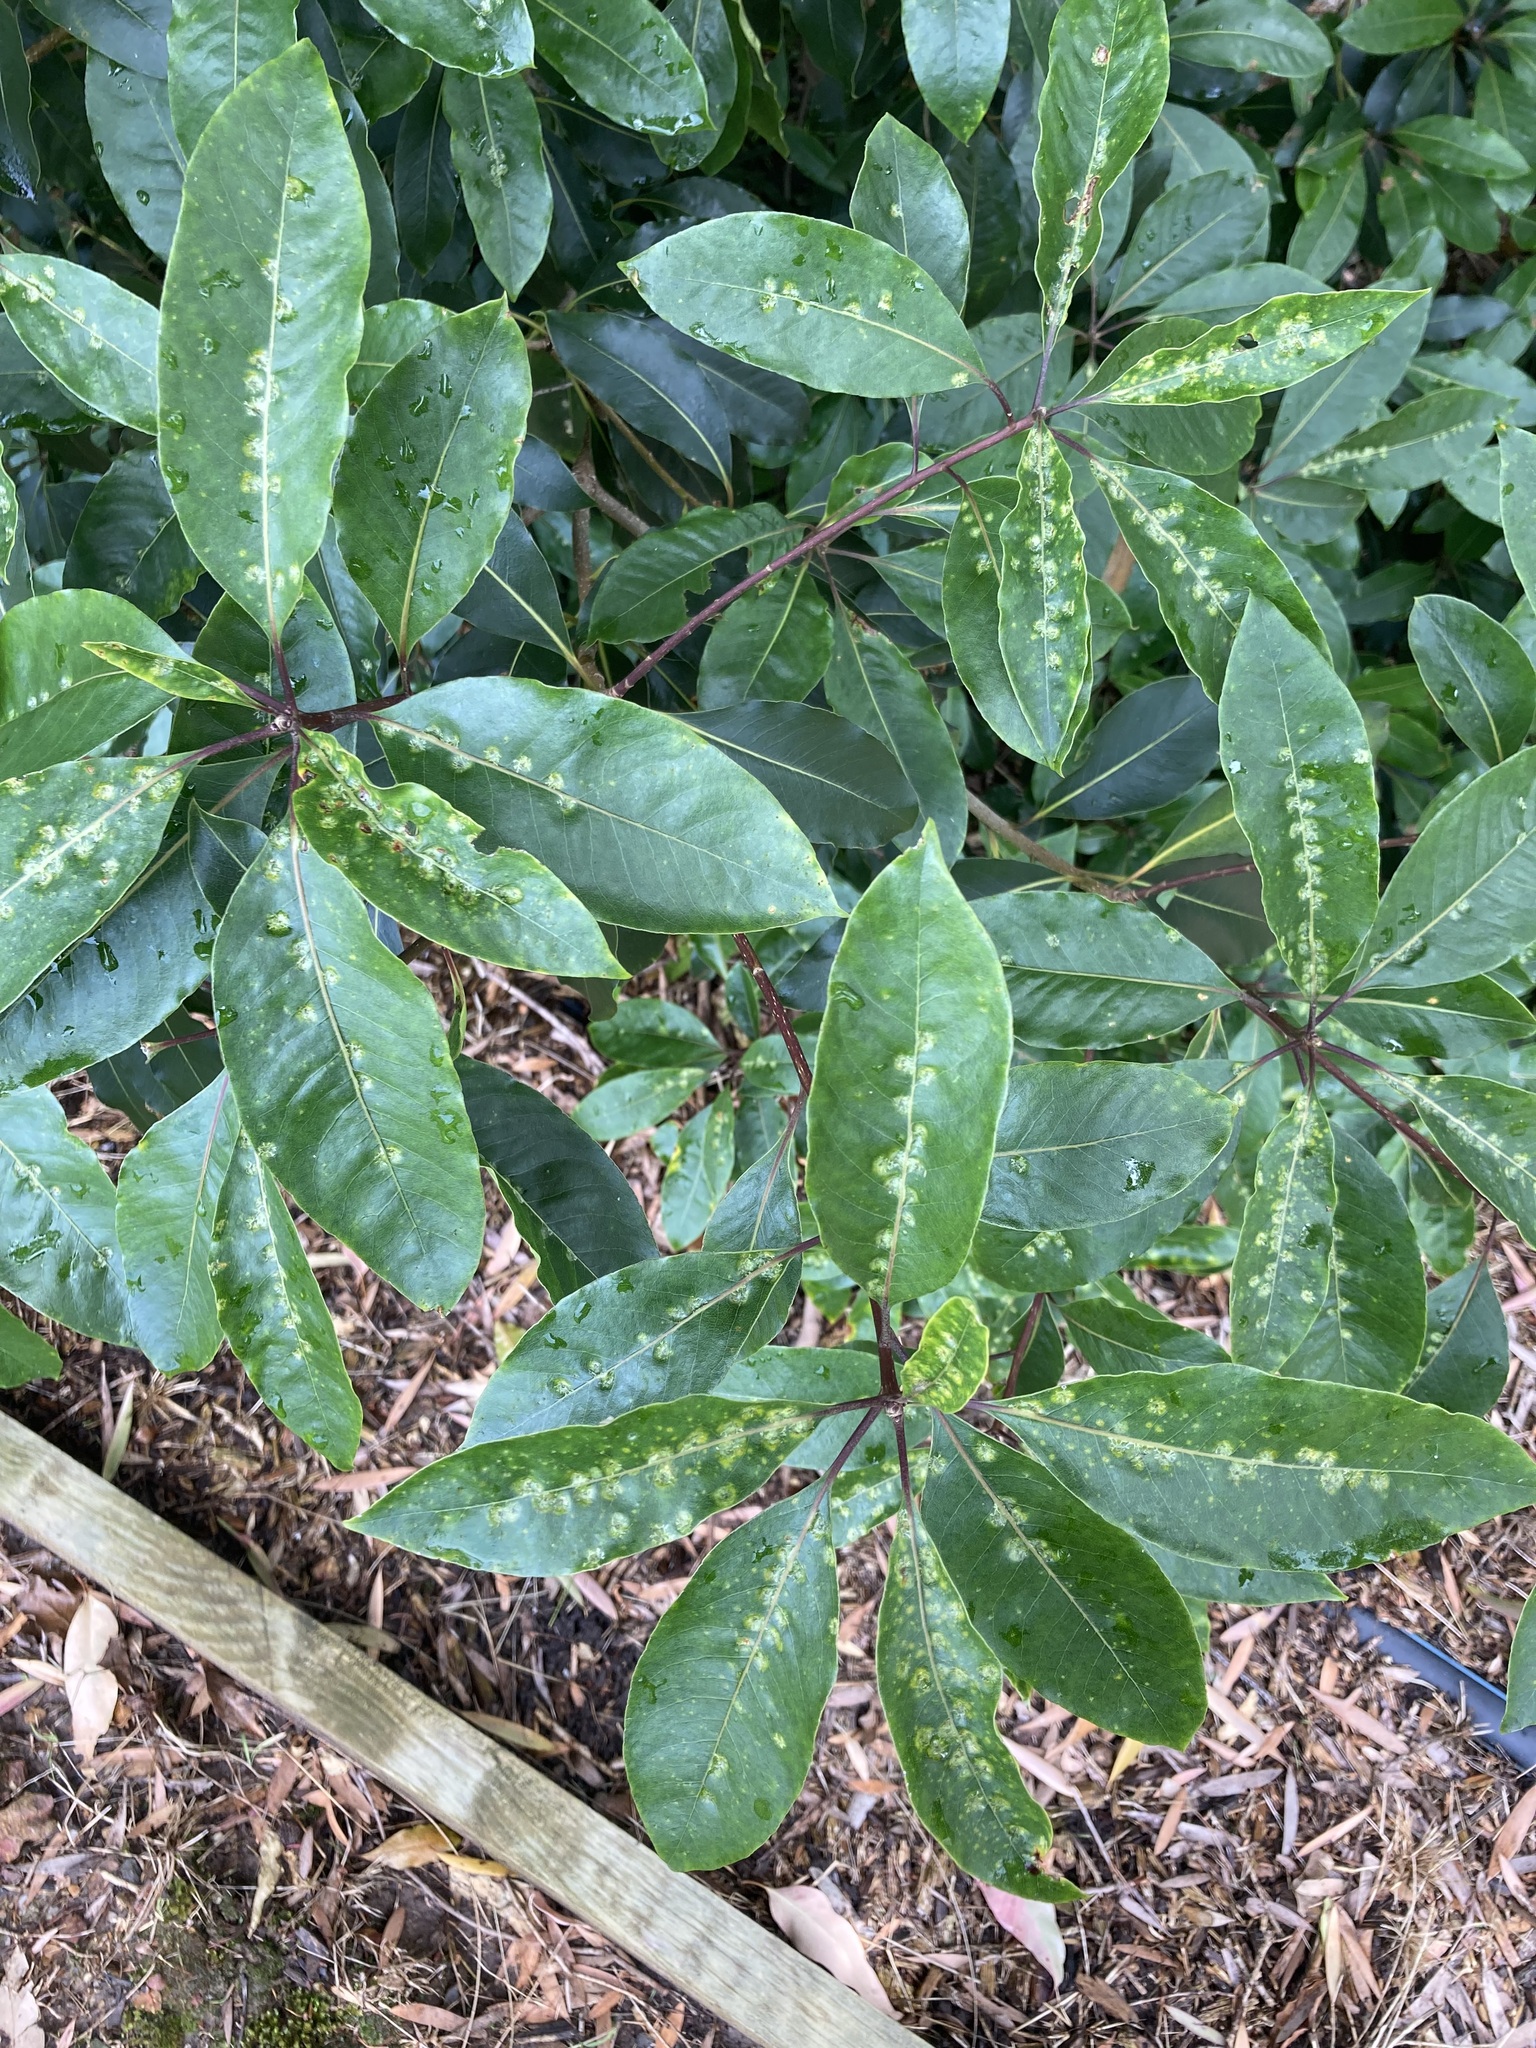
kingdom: Animalia
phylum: Arthropoda
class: Insecta
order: Diptera
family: Agromyzidae
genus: Phytoliriomyza
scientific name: Phytoliriomyza pittosporophylli
